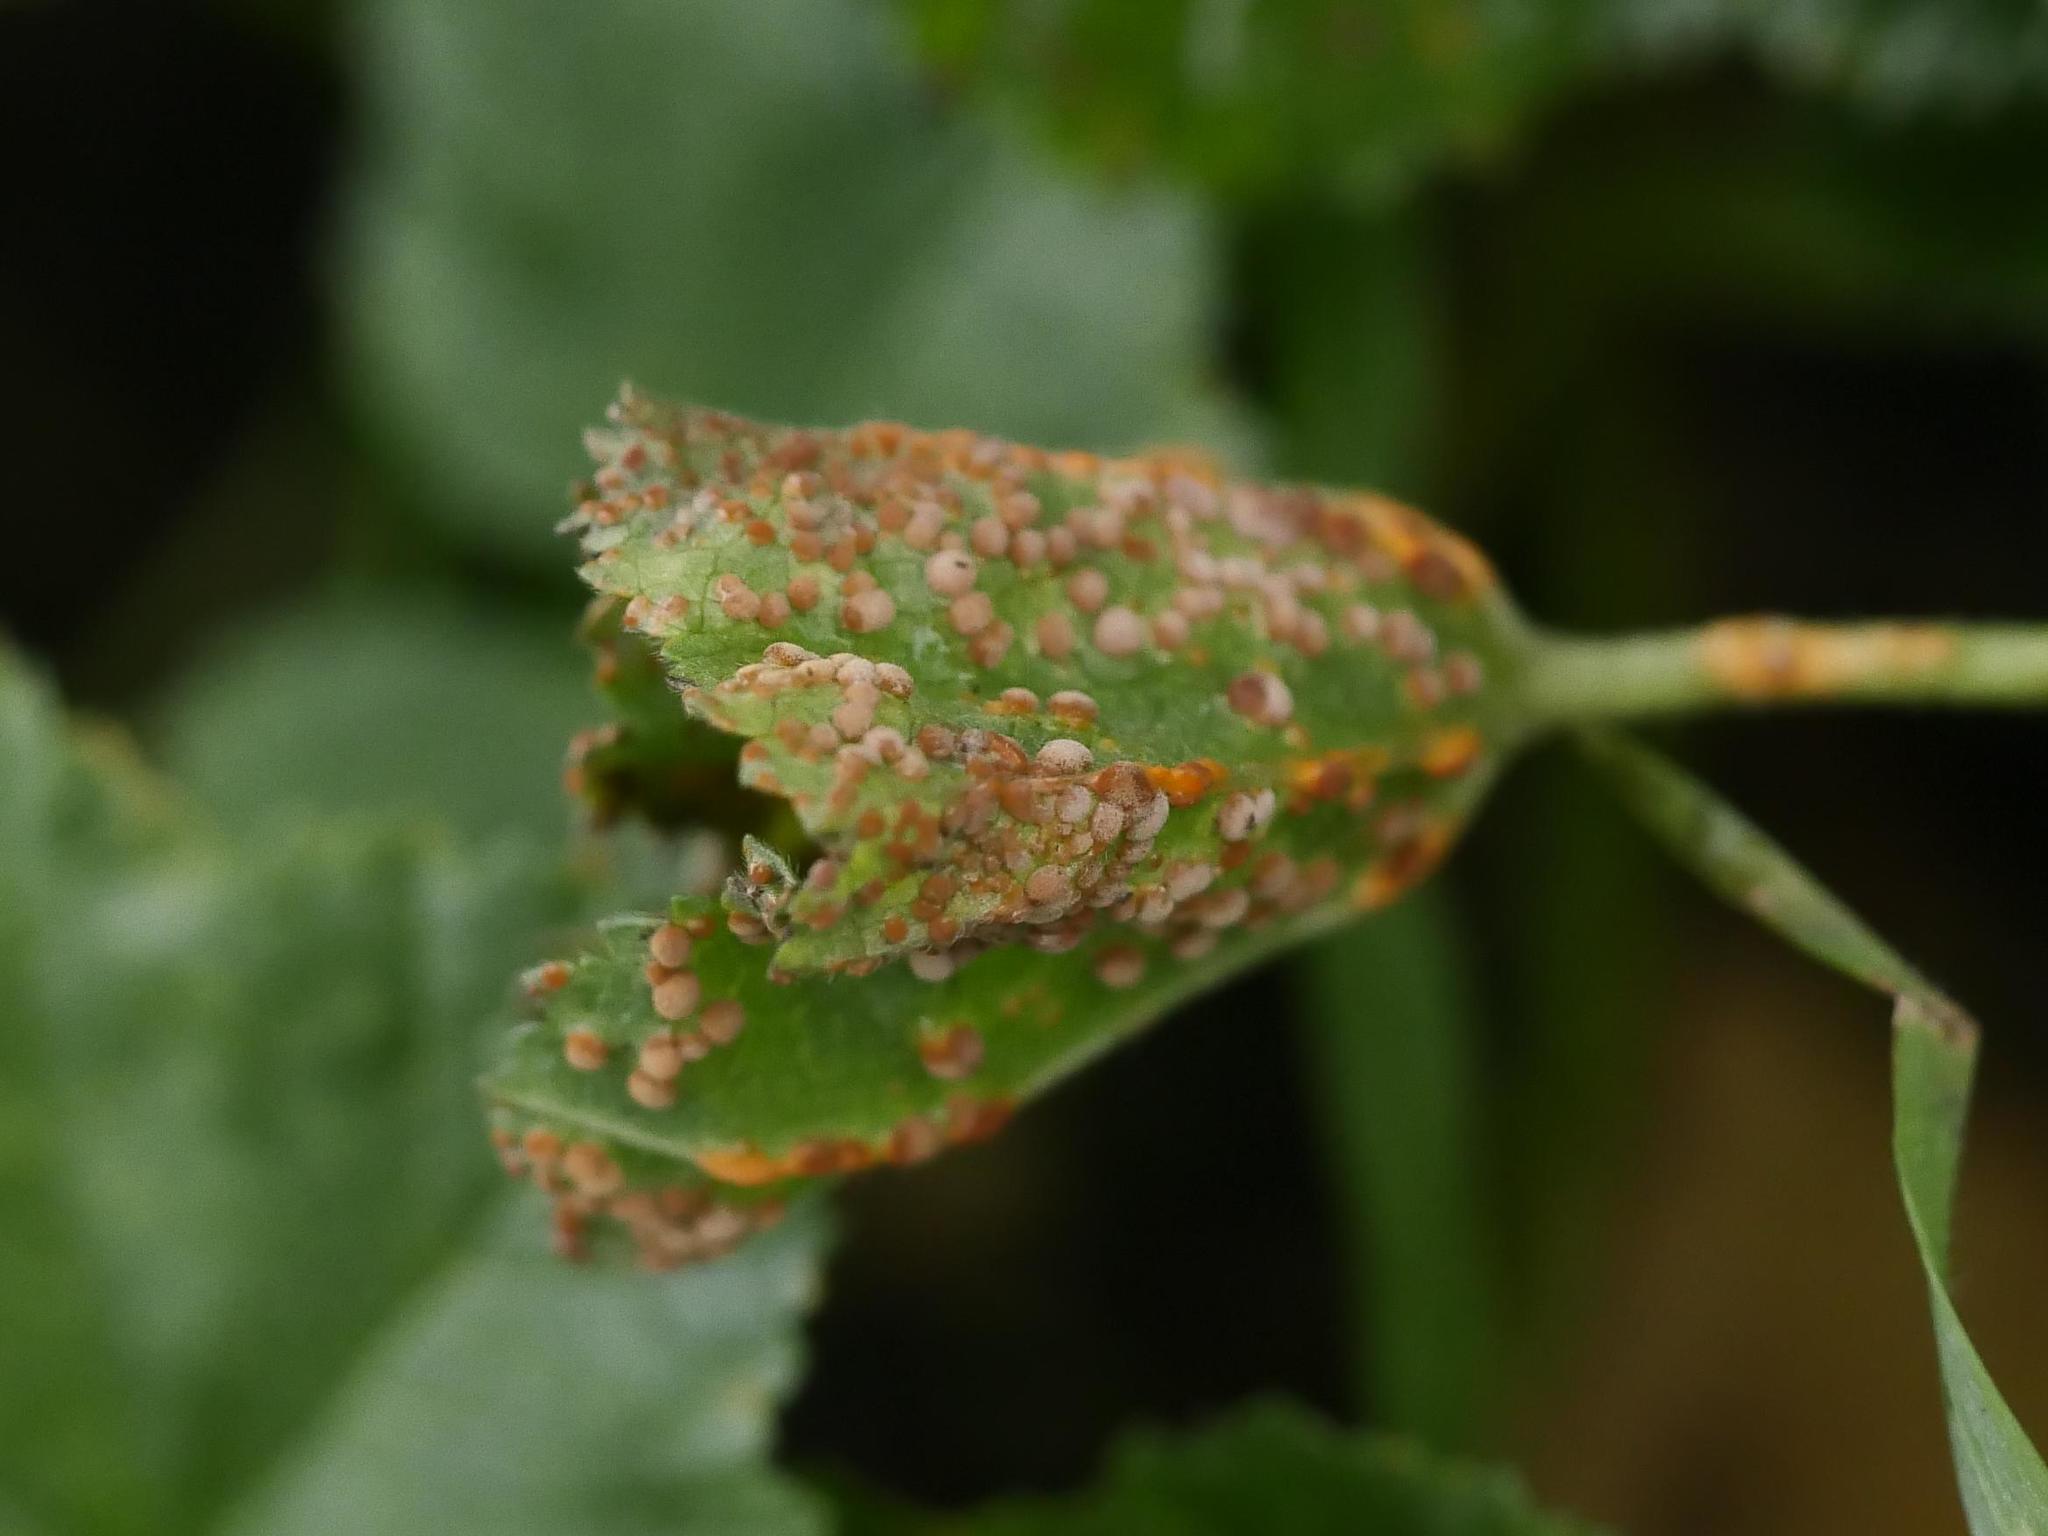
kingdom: Fungi
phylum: Basidiomycota
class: Pucciniomycetes
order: Pucciniales
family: Pucciniaceae
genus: Puccinia
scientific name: Puccinia malvacearum
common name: Hollyhock rust
